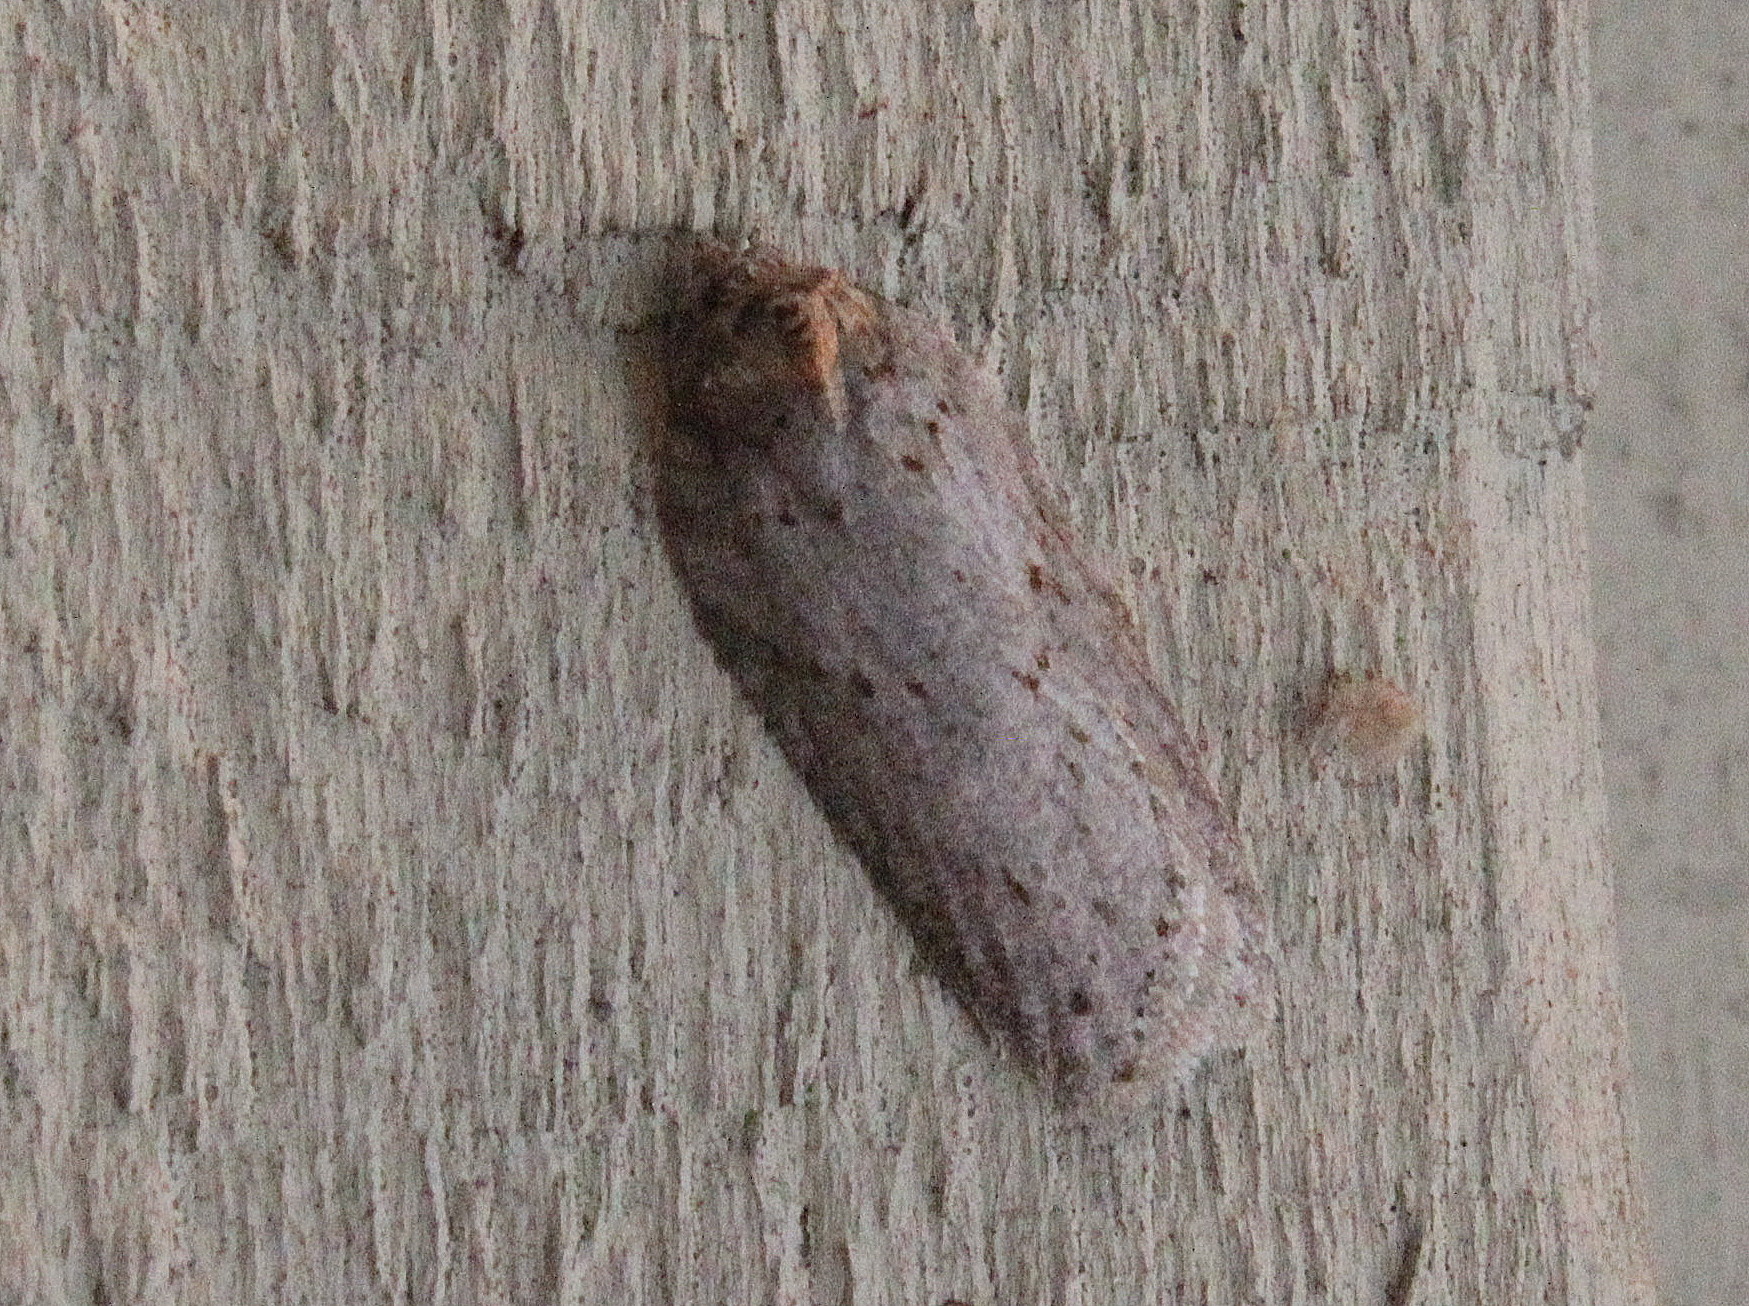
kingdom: Animalia
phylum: Arthropoda
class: Insecta
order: Lepidoptera
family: Tortricidae
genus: Acleris
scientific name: Acleris busckana
